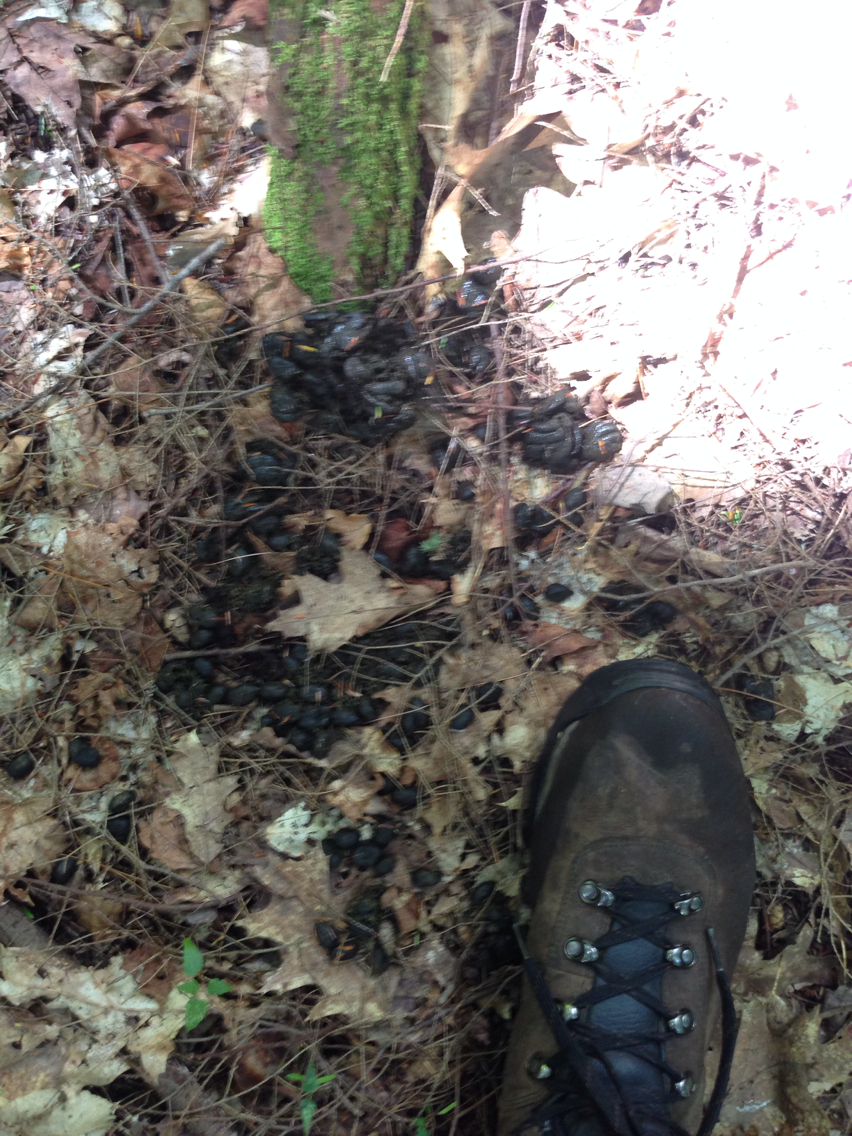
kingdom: Animalia
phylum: Chordata
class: Mammalia
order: Artiodactyla
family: Cervidae
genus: Alces
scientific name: Alces alces
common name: Moose
